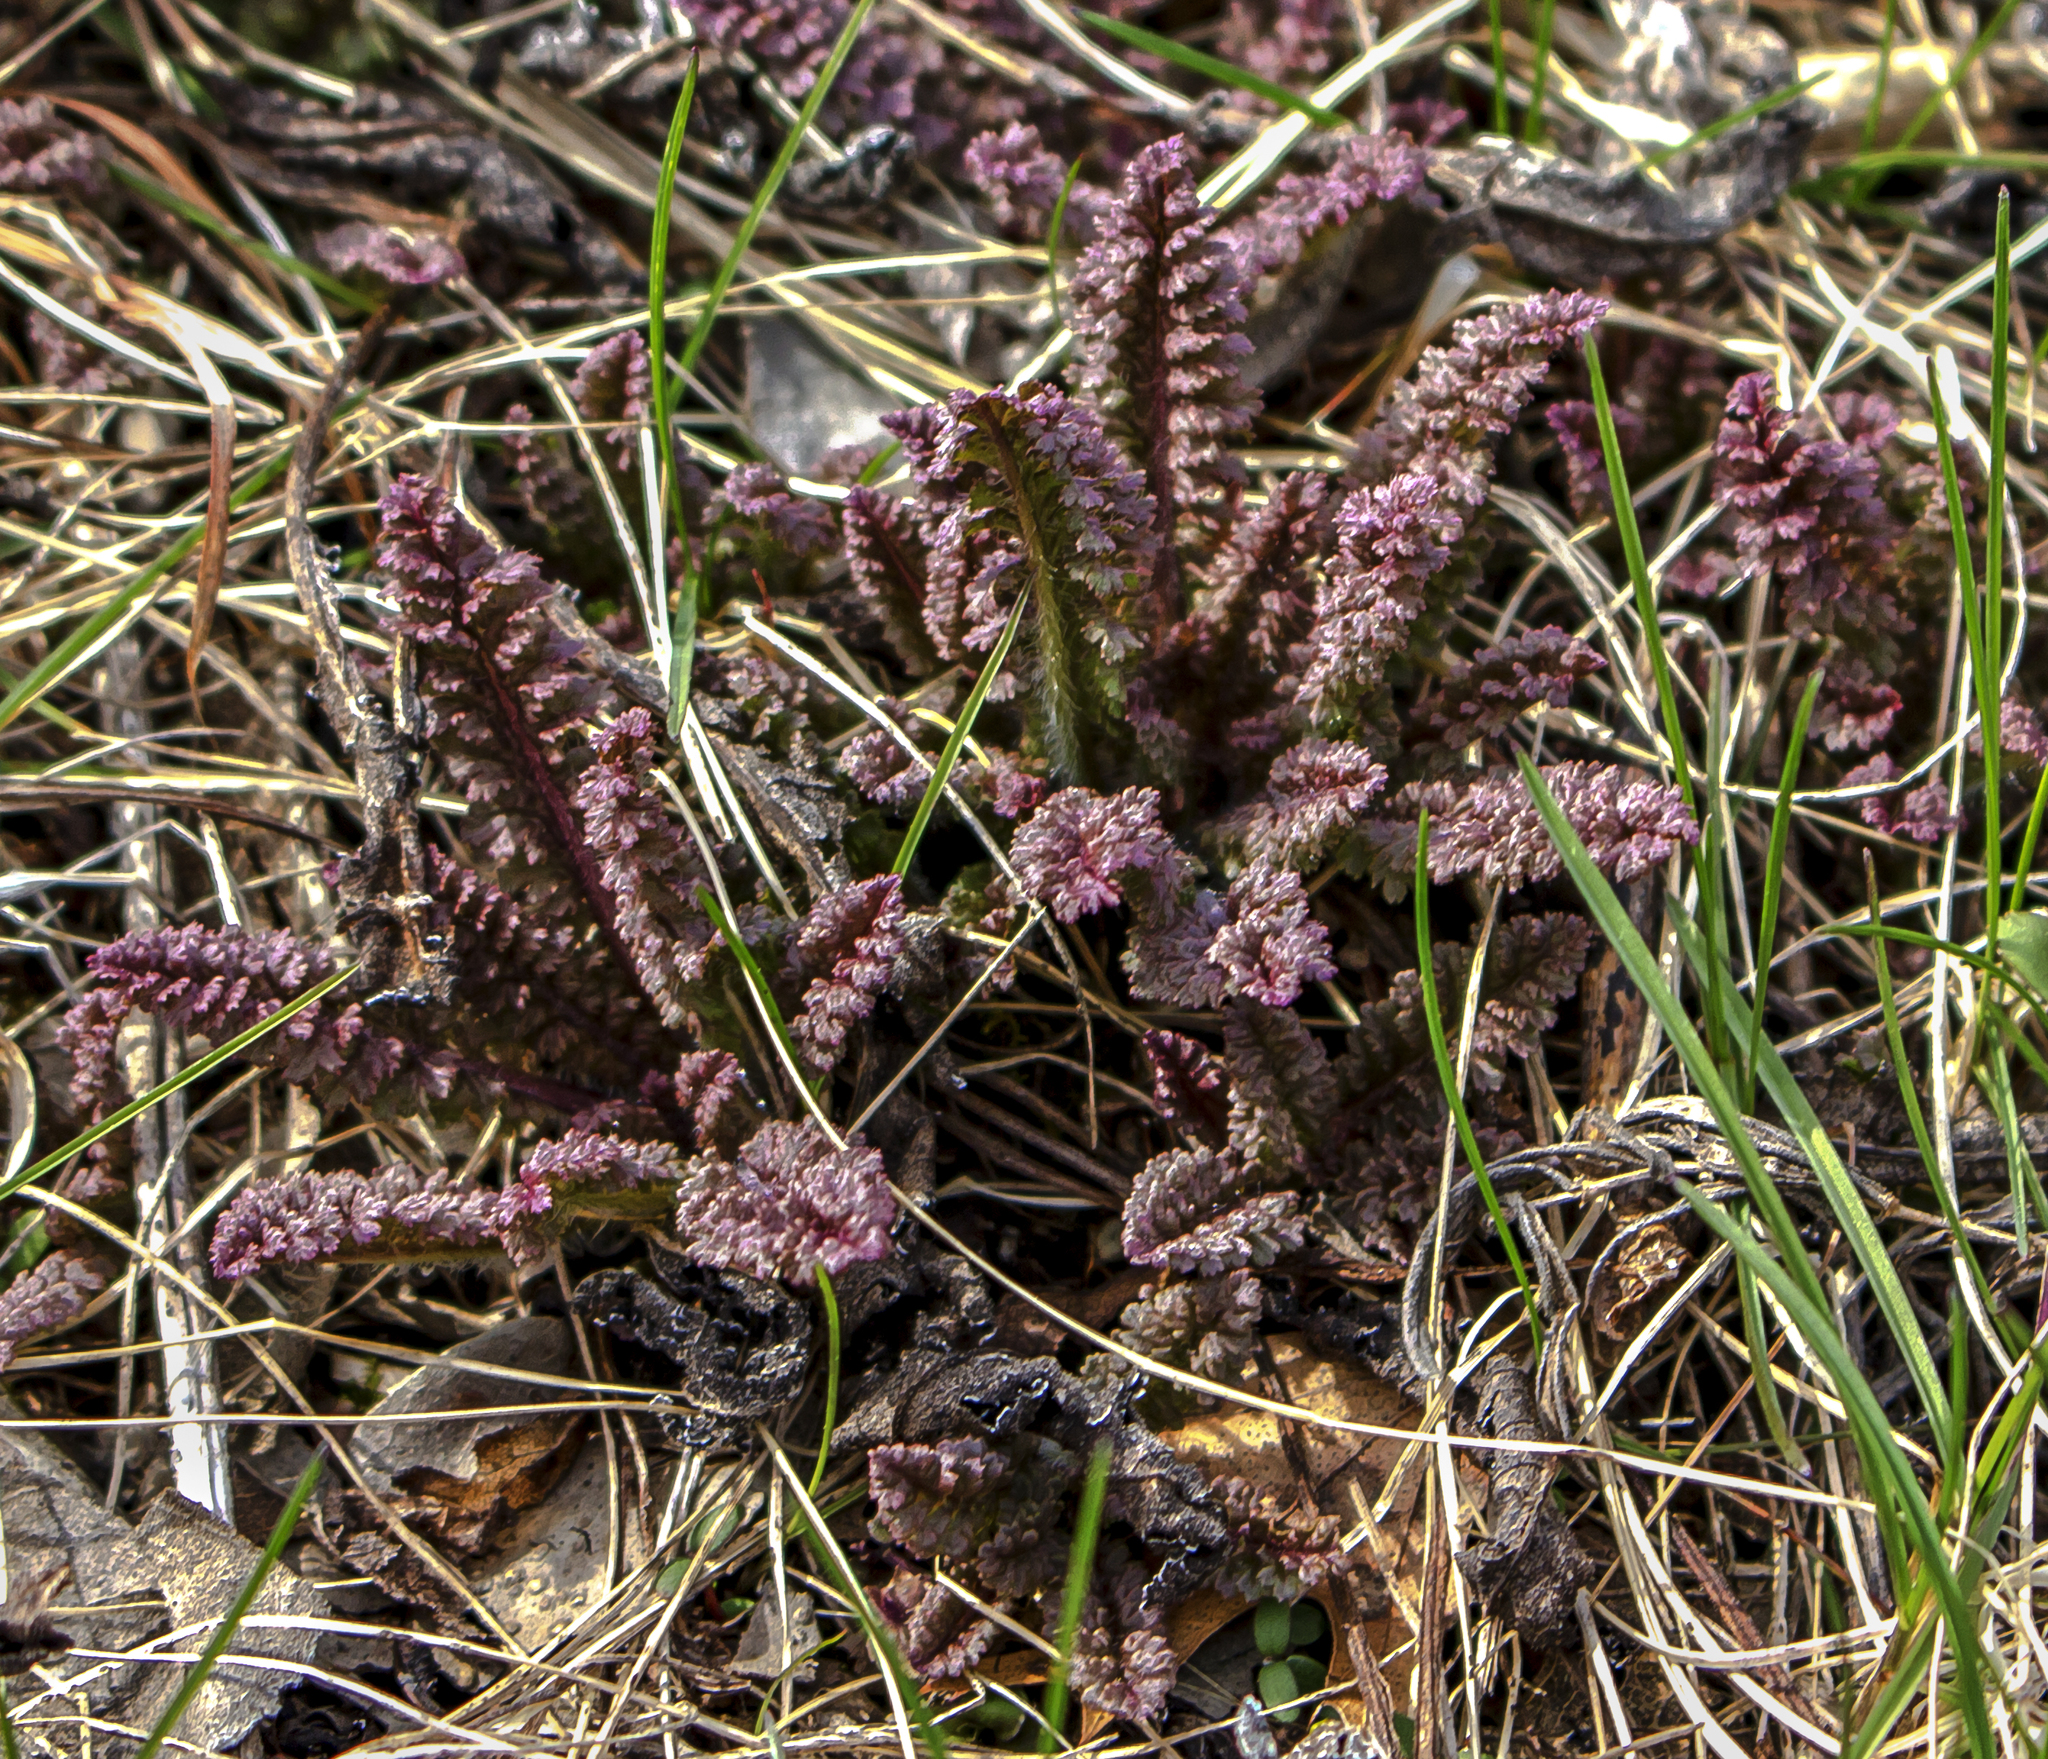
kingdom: Plantae
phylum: Tracheophyta
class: Magnoliopsida
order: Lamiales
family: Orobanchaceae
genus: Pedicularis
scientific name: Pedicularis canadensis
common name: Early lousewort
